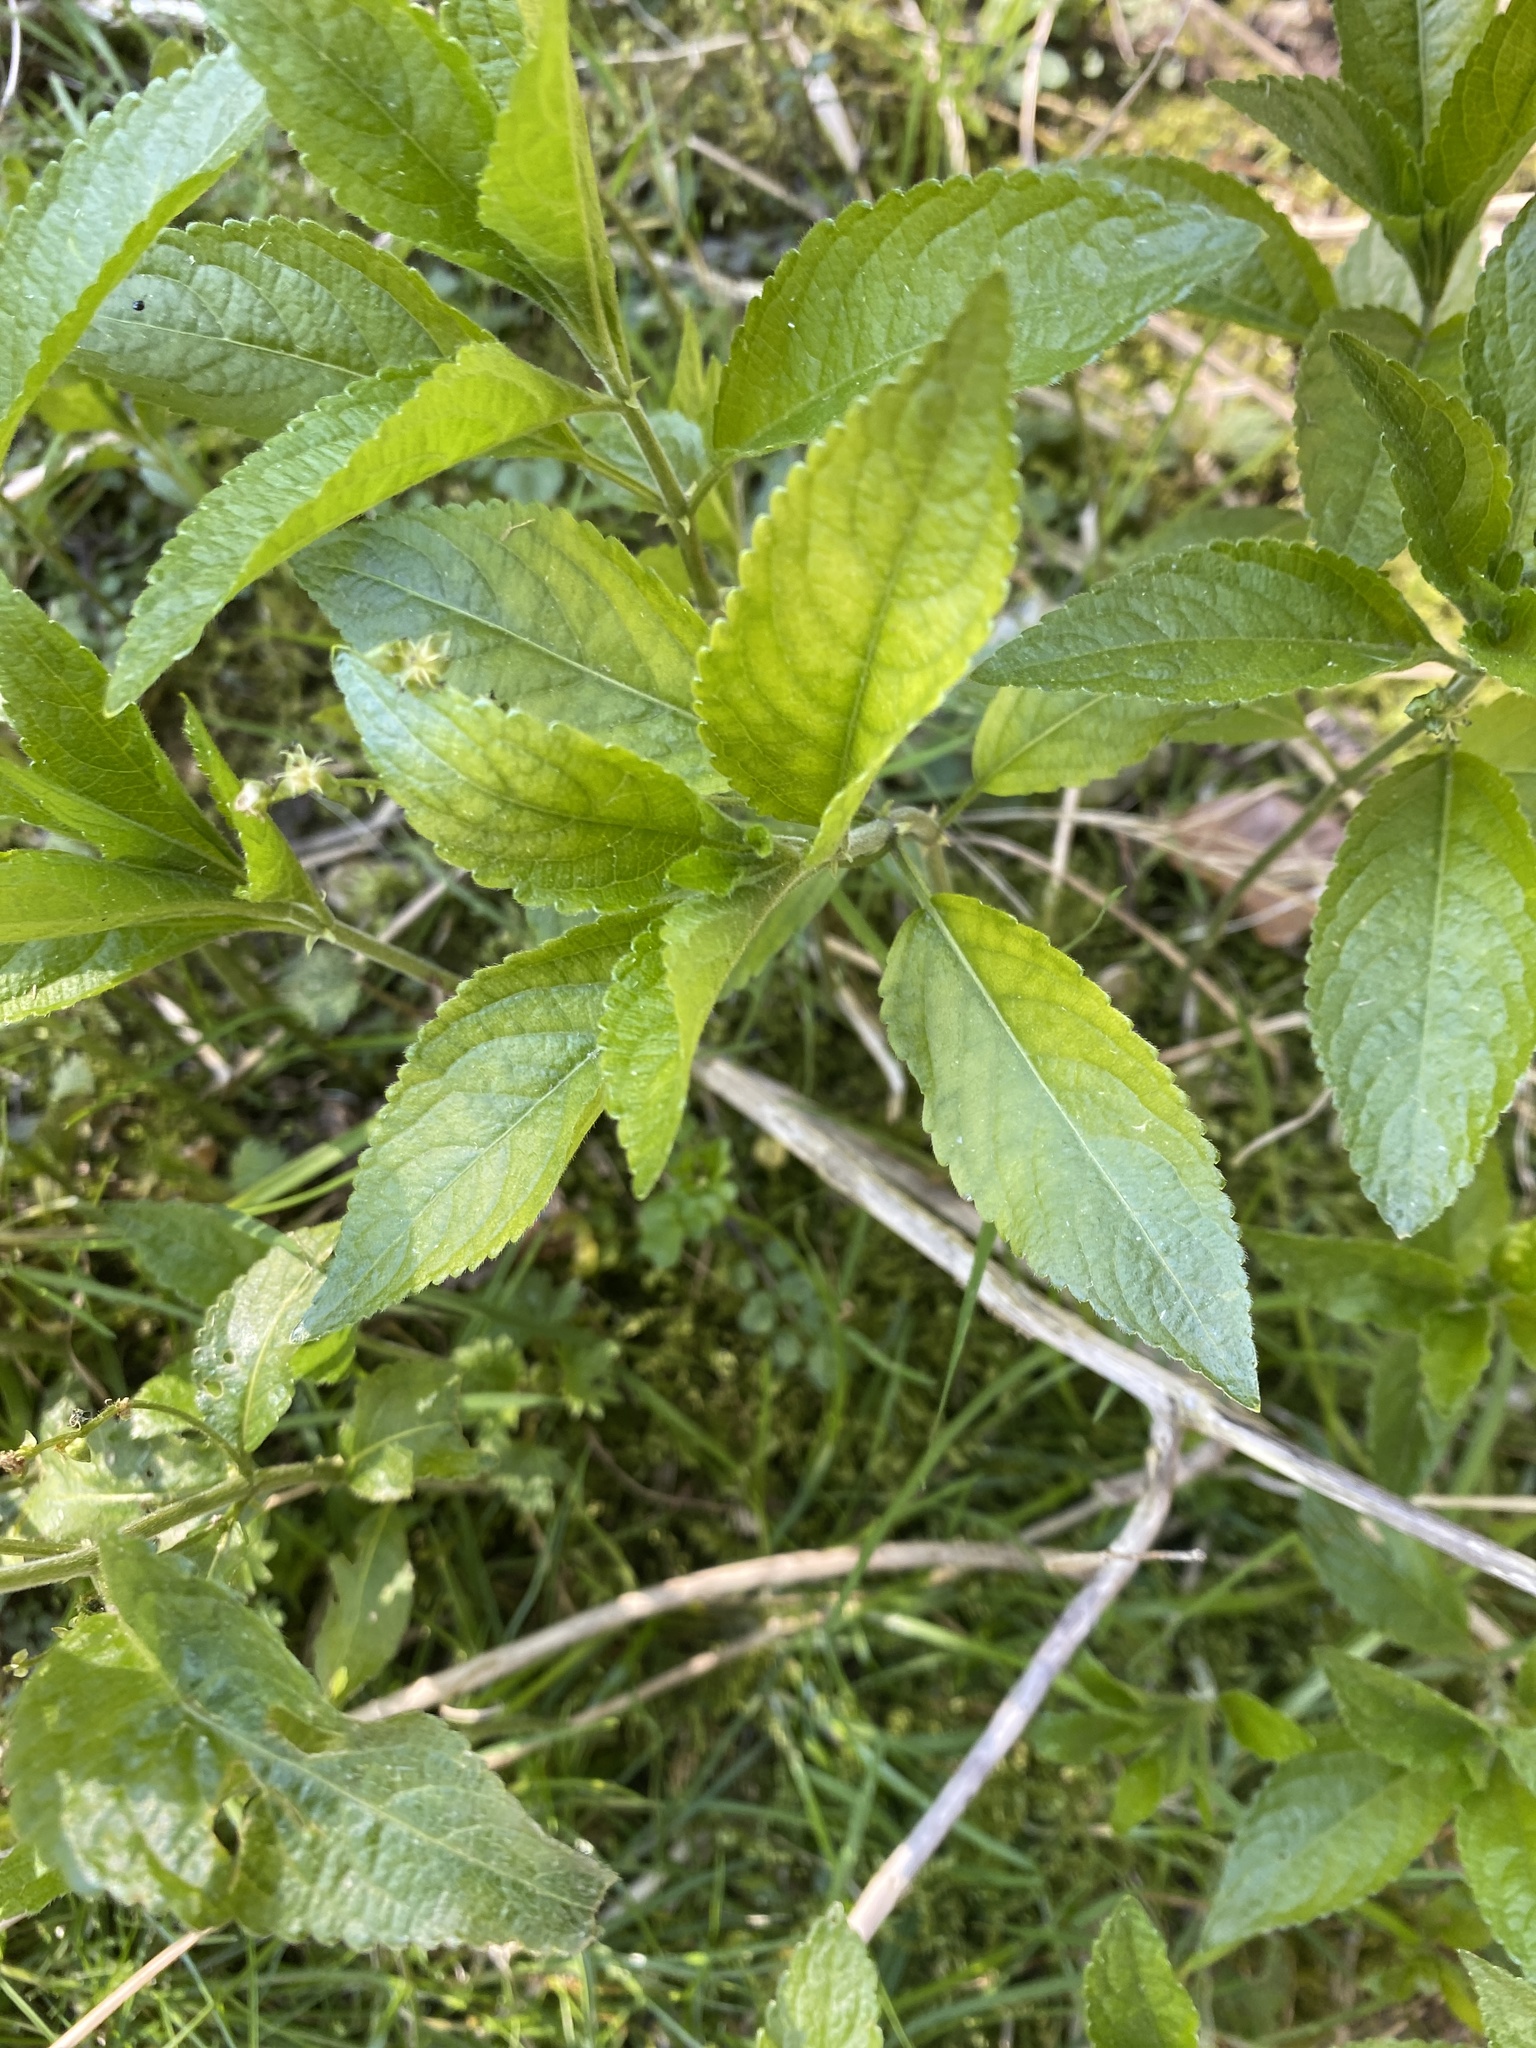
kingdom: Plantae
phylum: Tracheophyta
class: Magnoliopsida
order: Malpighiales
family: Euphorbiaceae
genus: Mercurialis
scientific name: Mercurialis perennis
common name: Dog mercury
